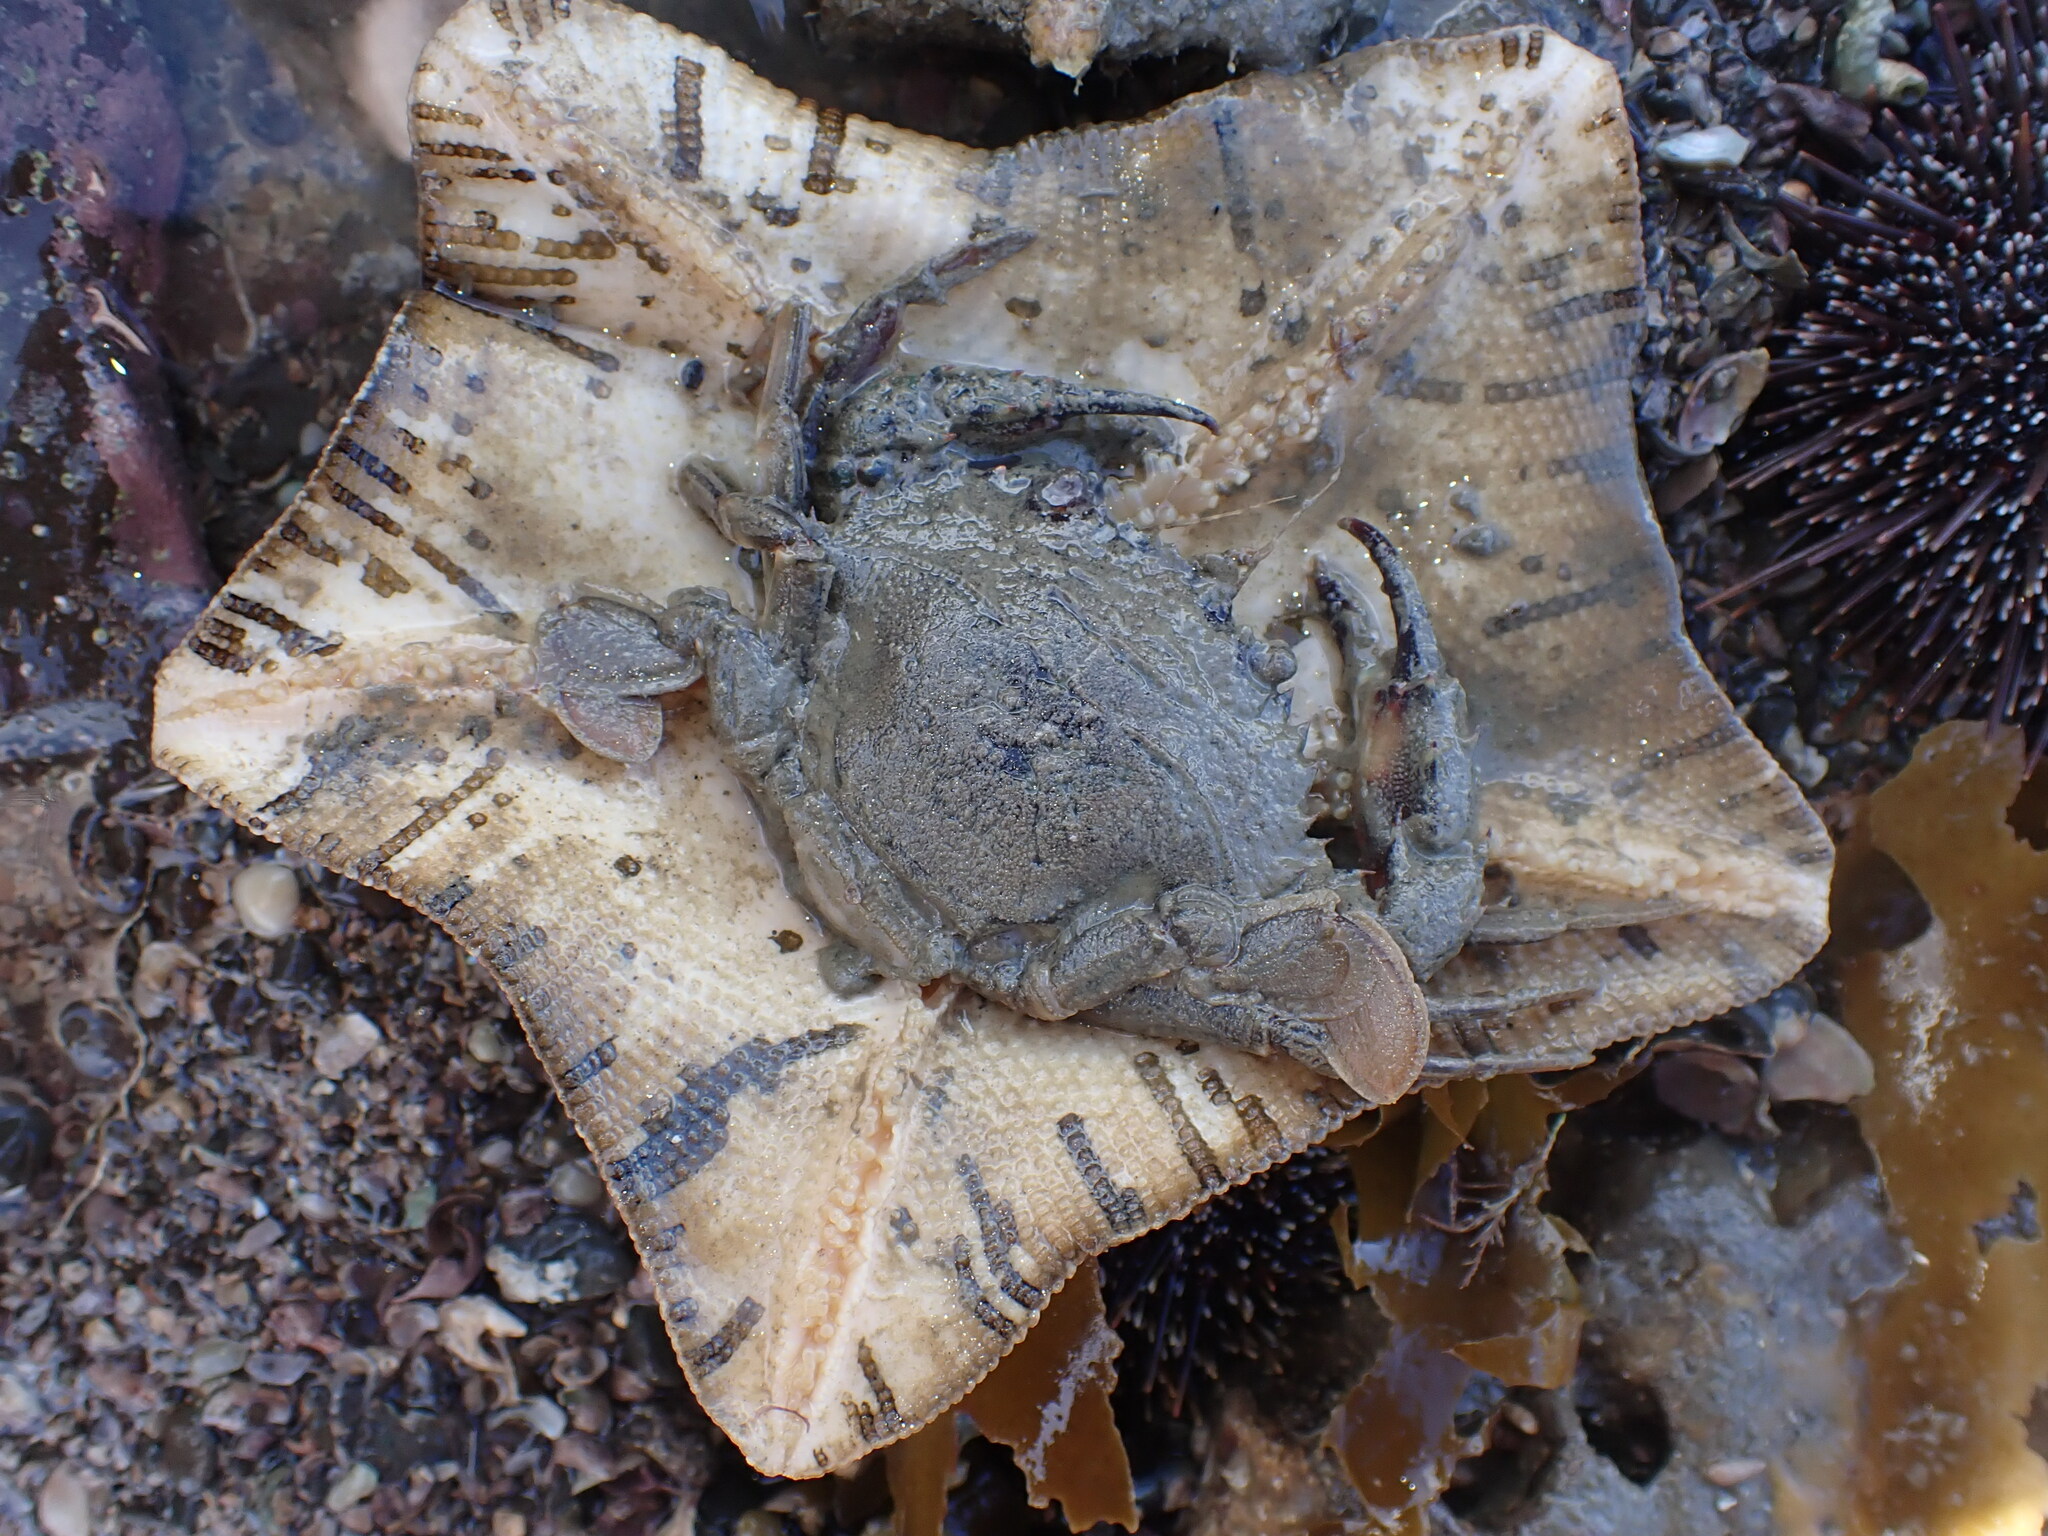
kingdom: Animalia
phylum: Echinodermata
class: Asteroidea
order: Valvatida
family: Asterinidae
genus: Stegnaster
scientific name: Stegnaster inflatus
